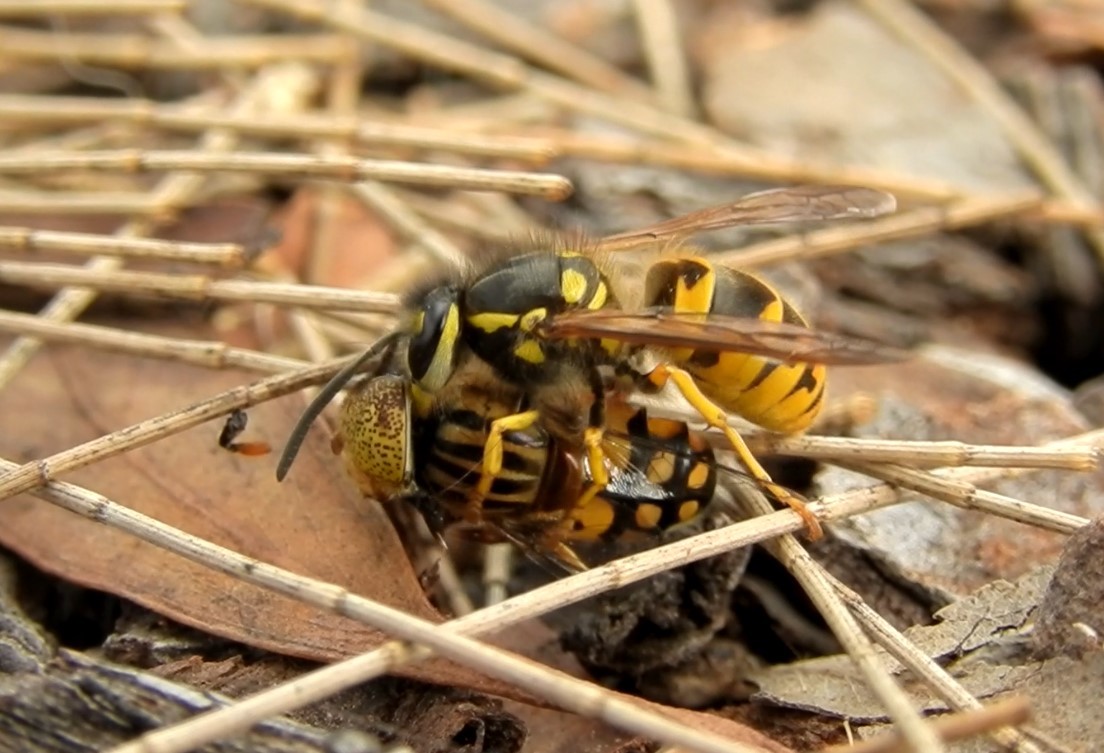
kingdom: Animalia
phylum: Arthropoda
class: Insecta
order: Diptera
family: Syrphidae
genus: Eristalinus
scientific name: Eristalinus punctulatus
